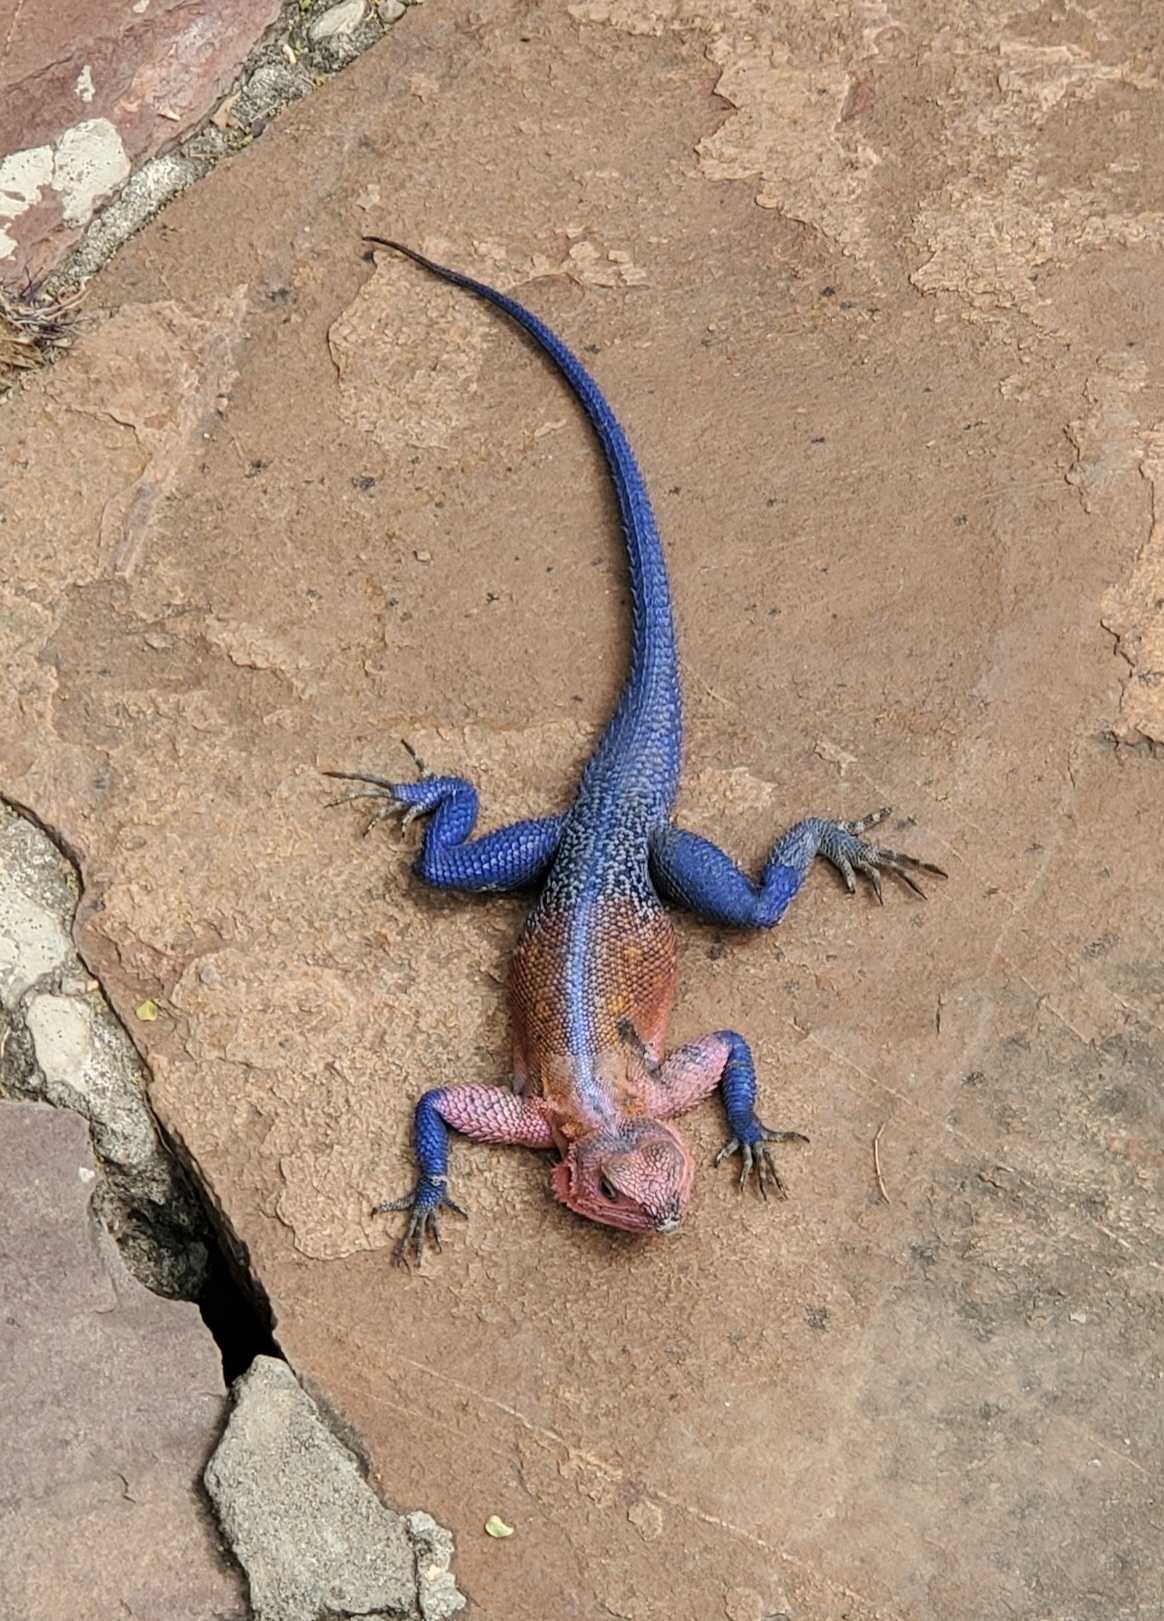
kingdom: Animalia
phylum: Chordata
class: Squamata
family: Agamidae
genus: Agama
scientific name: Agama mwanzae
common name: Mwanza flat-headed agama
